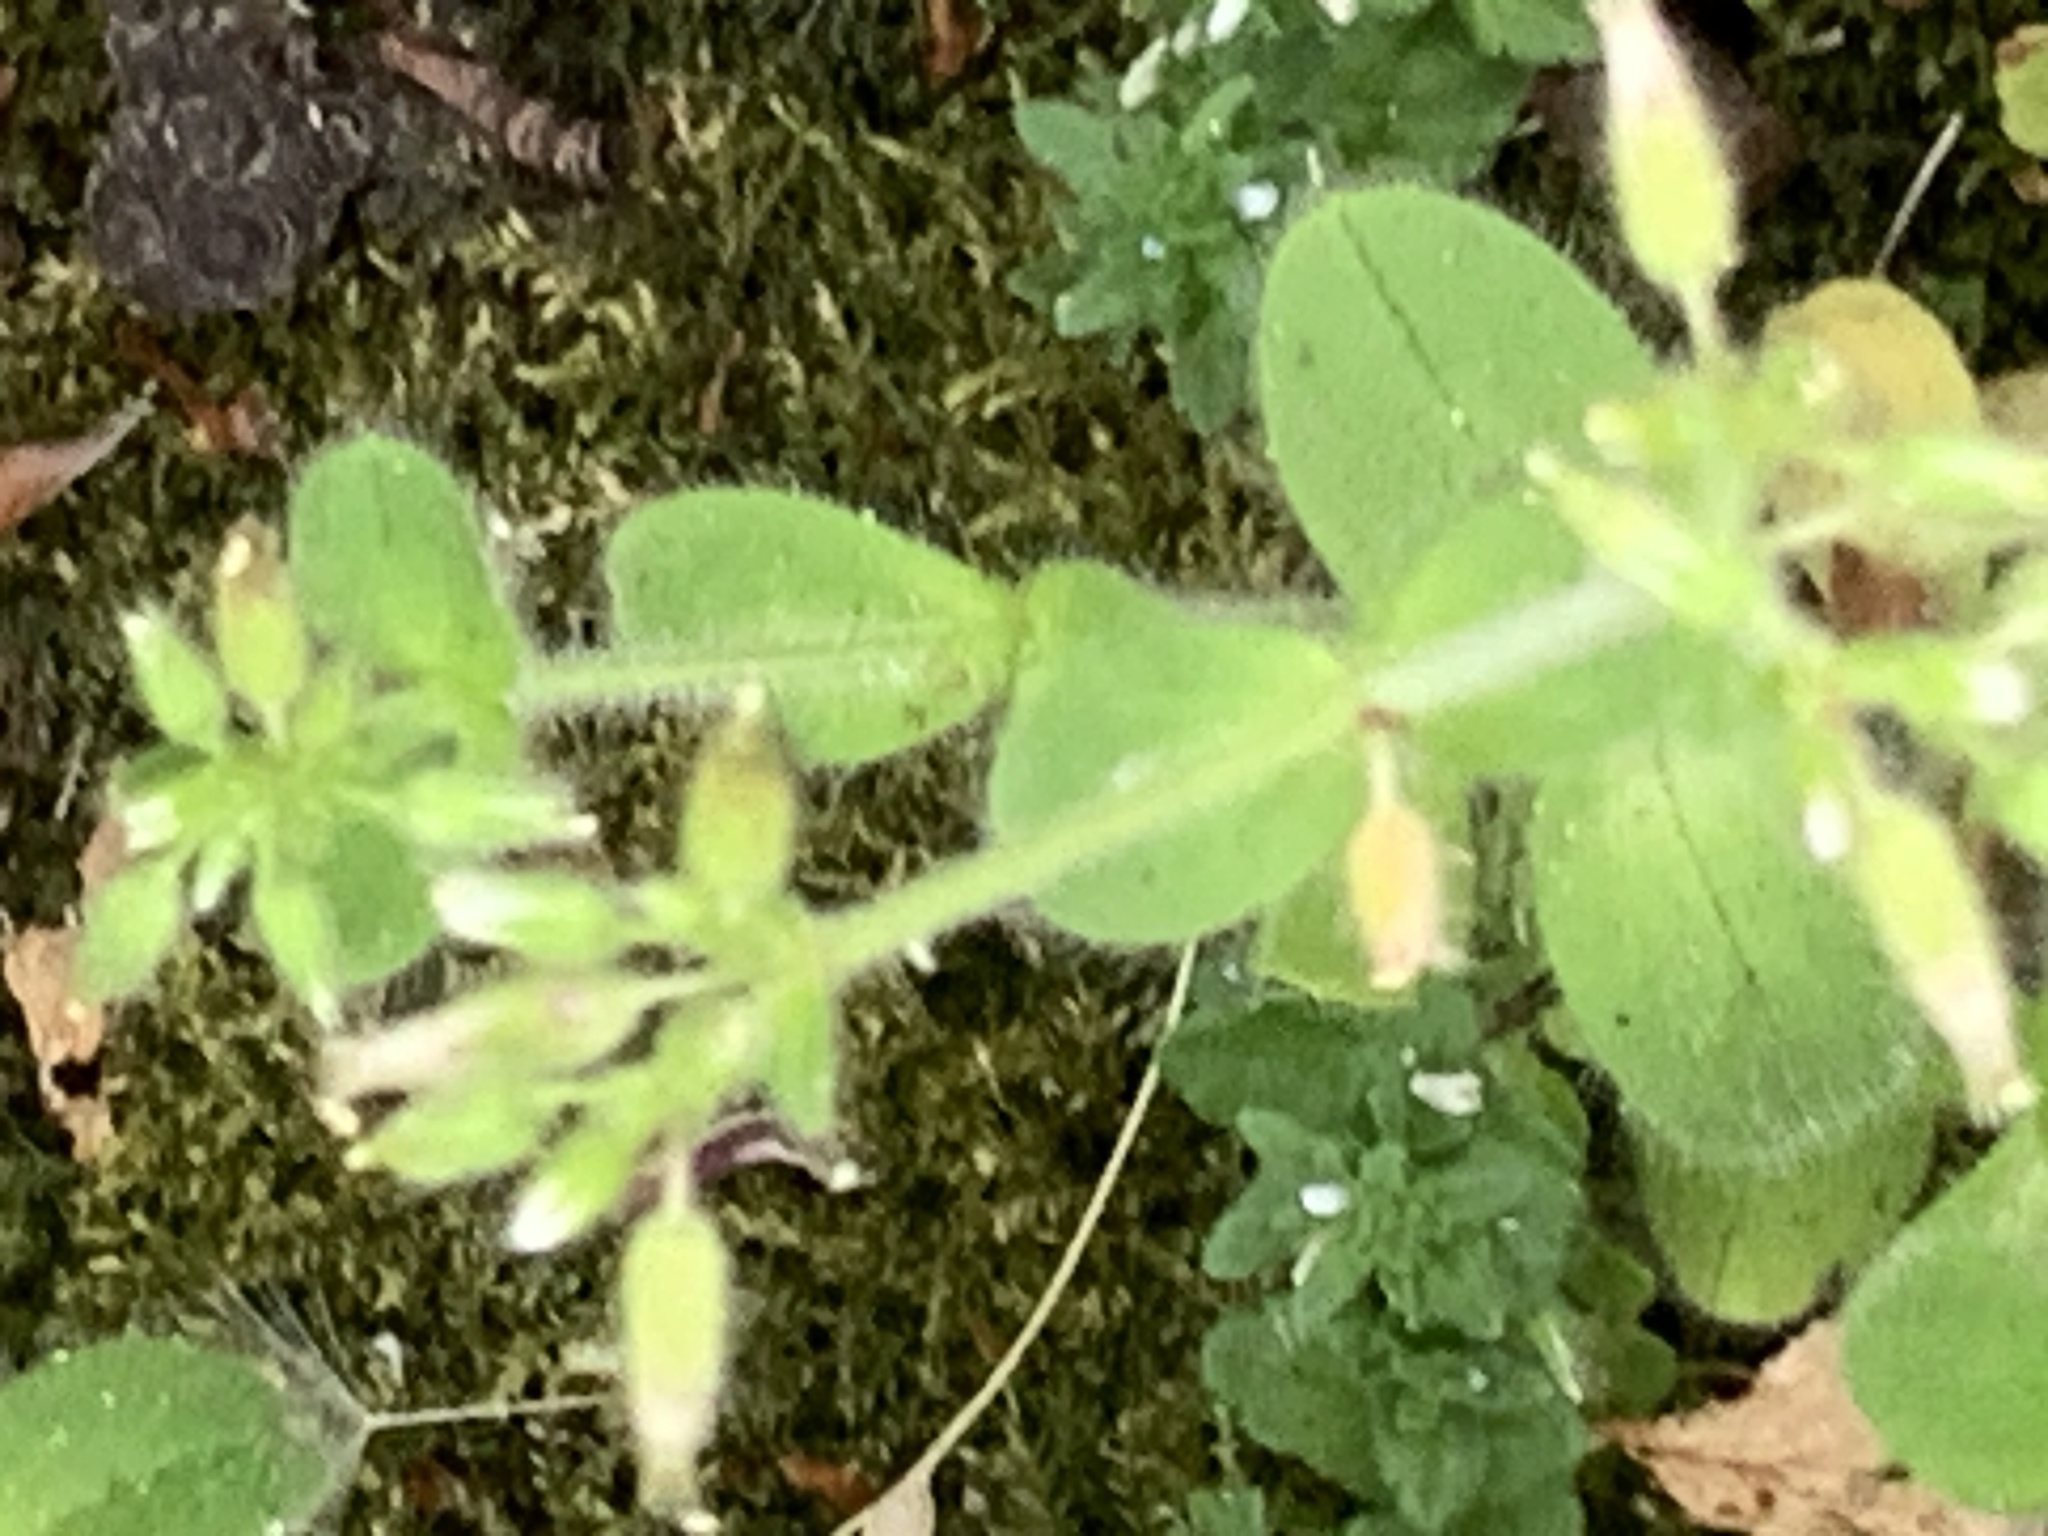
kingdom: Plantae
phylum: Tracheophyta
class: Magnoliopsida
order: Caryophyllales
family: Caryophyllaceae
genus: Cerastium
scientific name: Cerastium glomeratum
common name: Sticky chickweed
